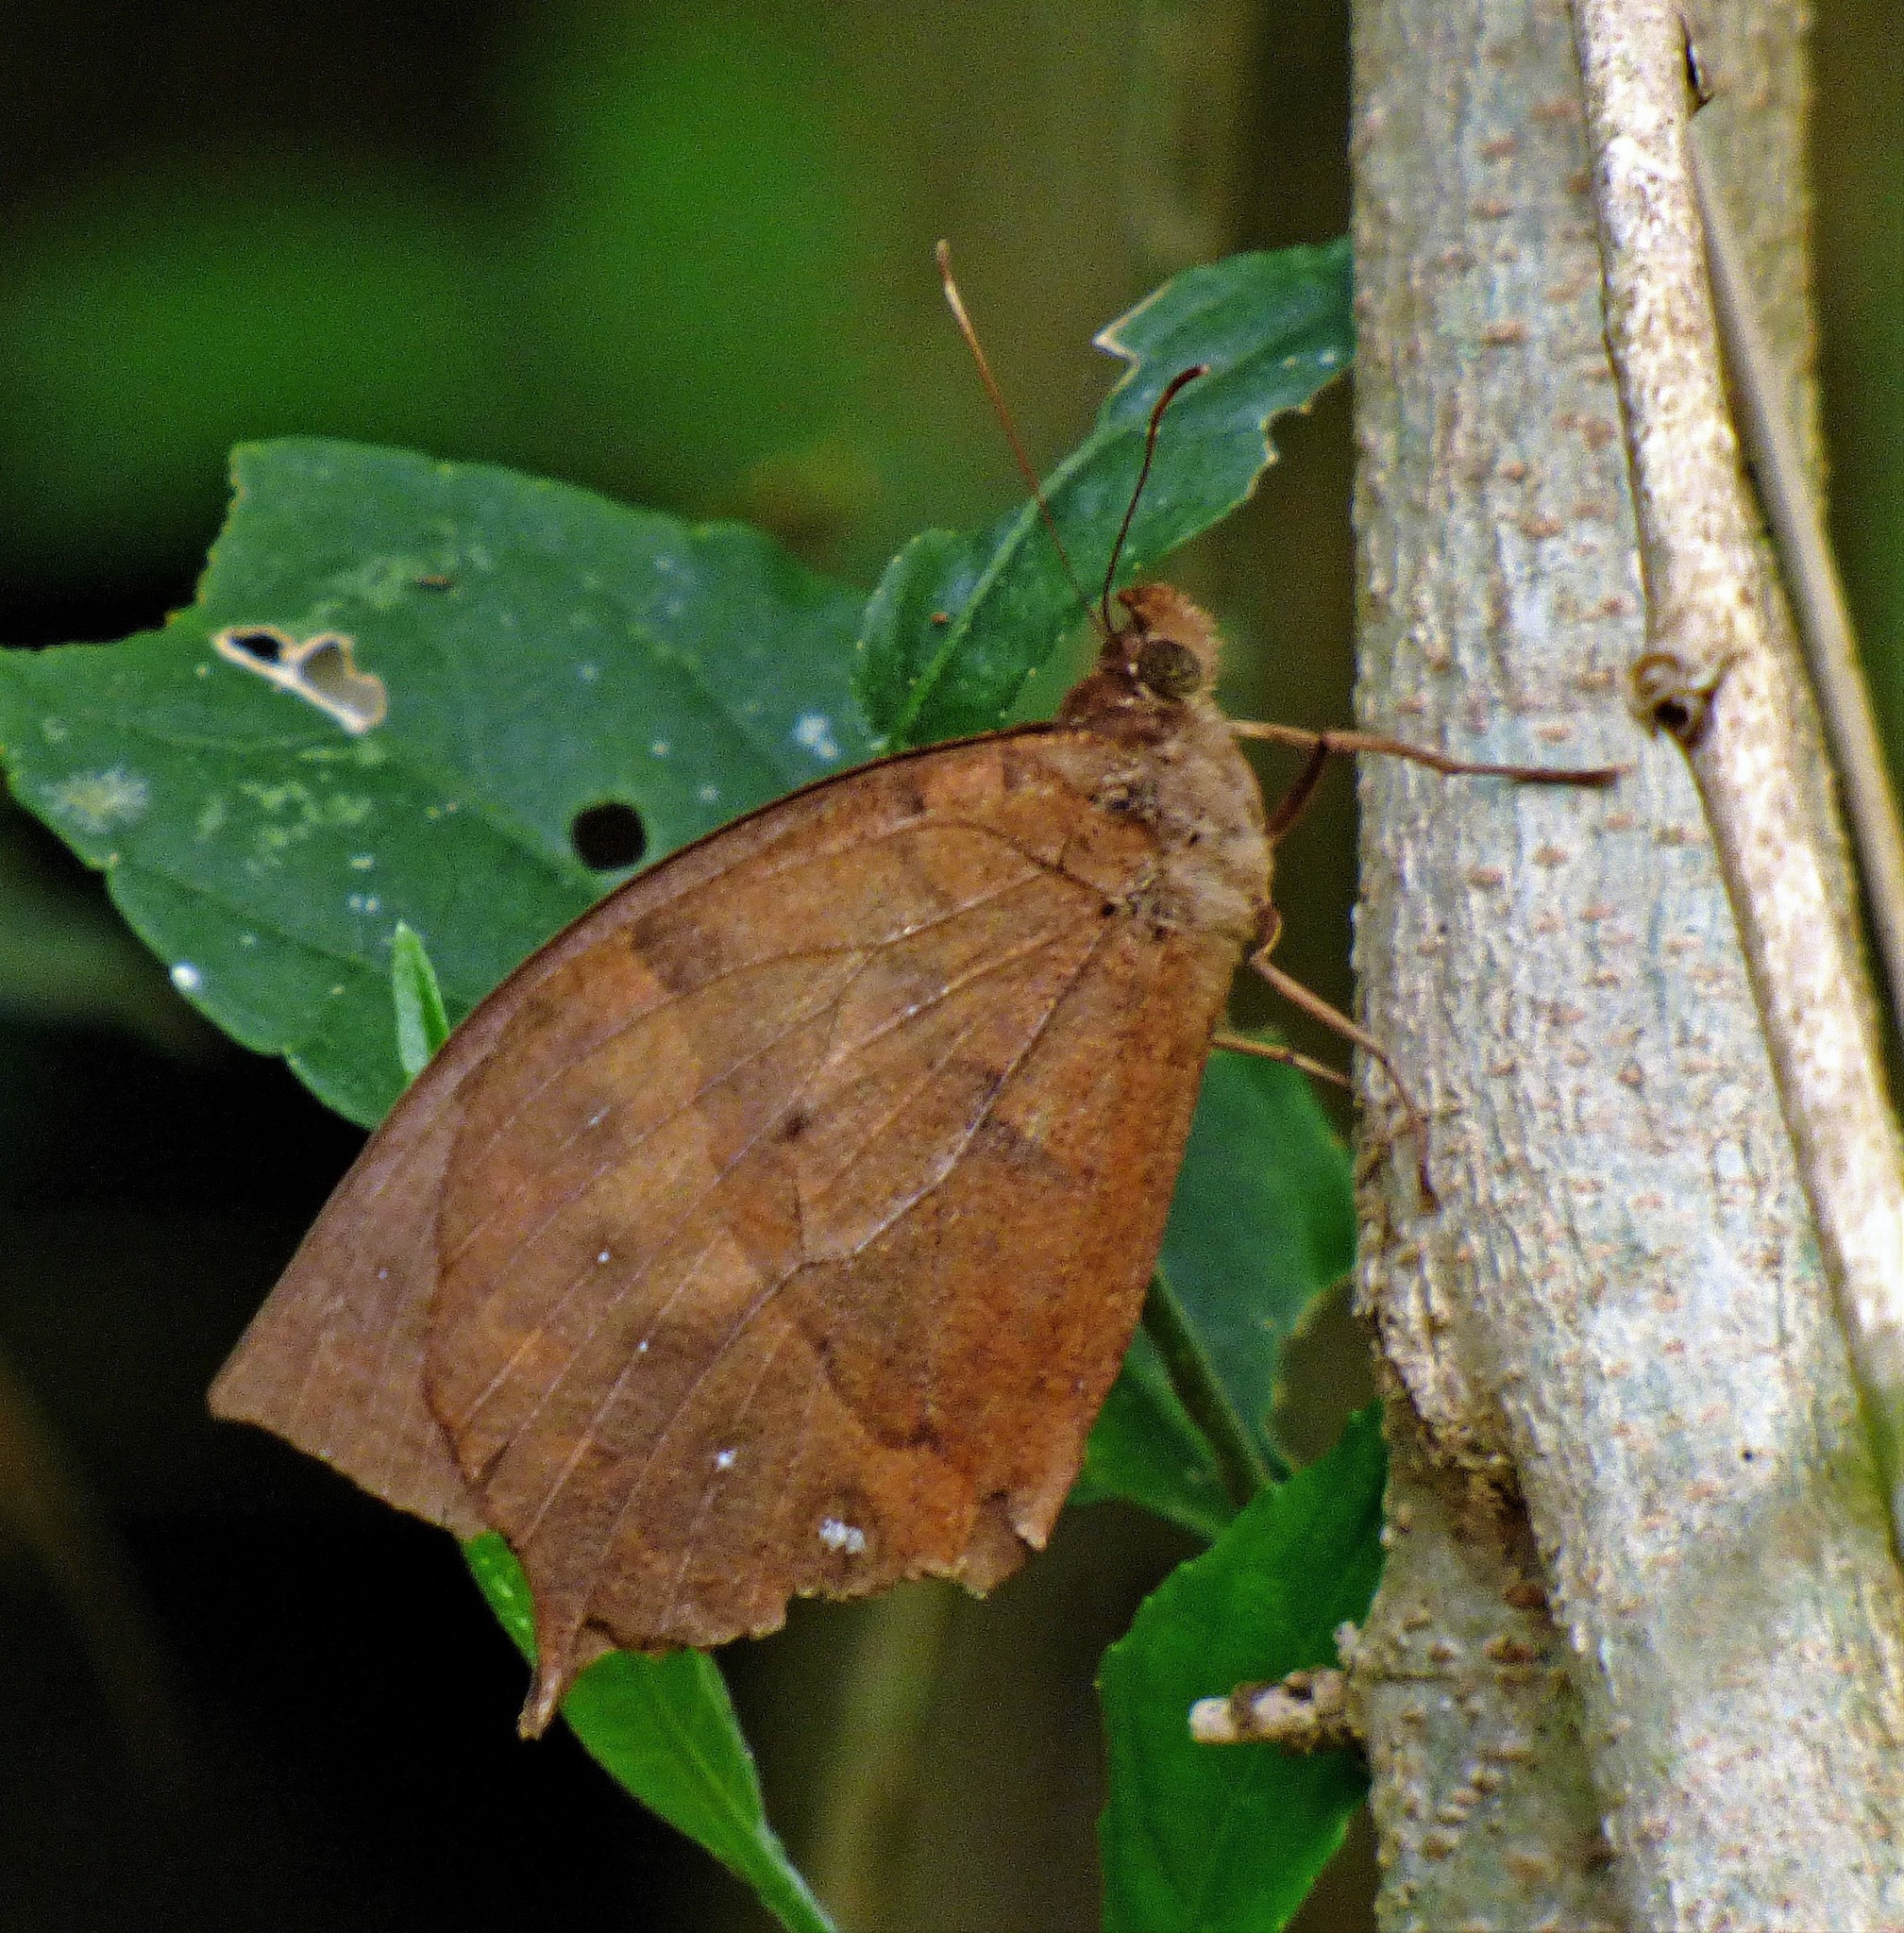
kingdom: Animalia
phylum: Arthropoda
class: Insecta
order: Lepidoptera
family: Nymphalidae
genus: Taguaiba
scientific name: Taguaiba
